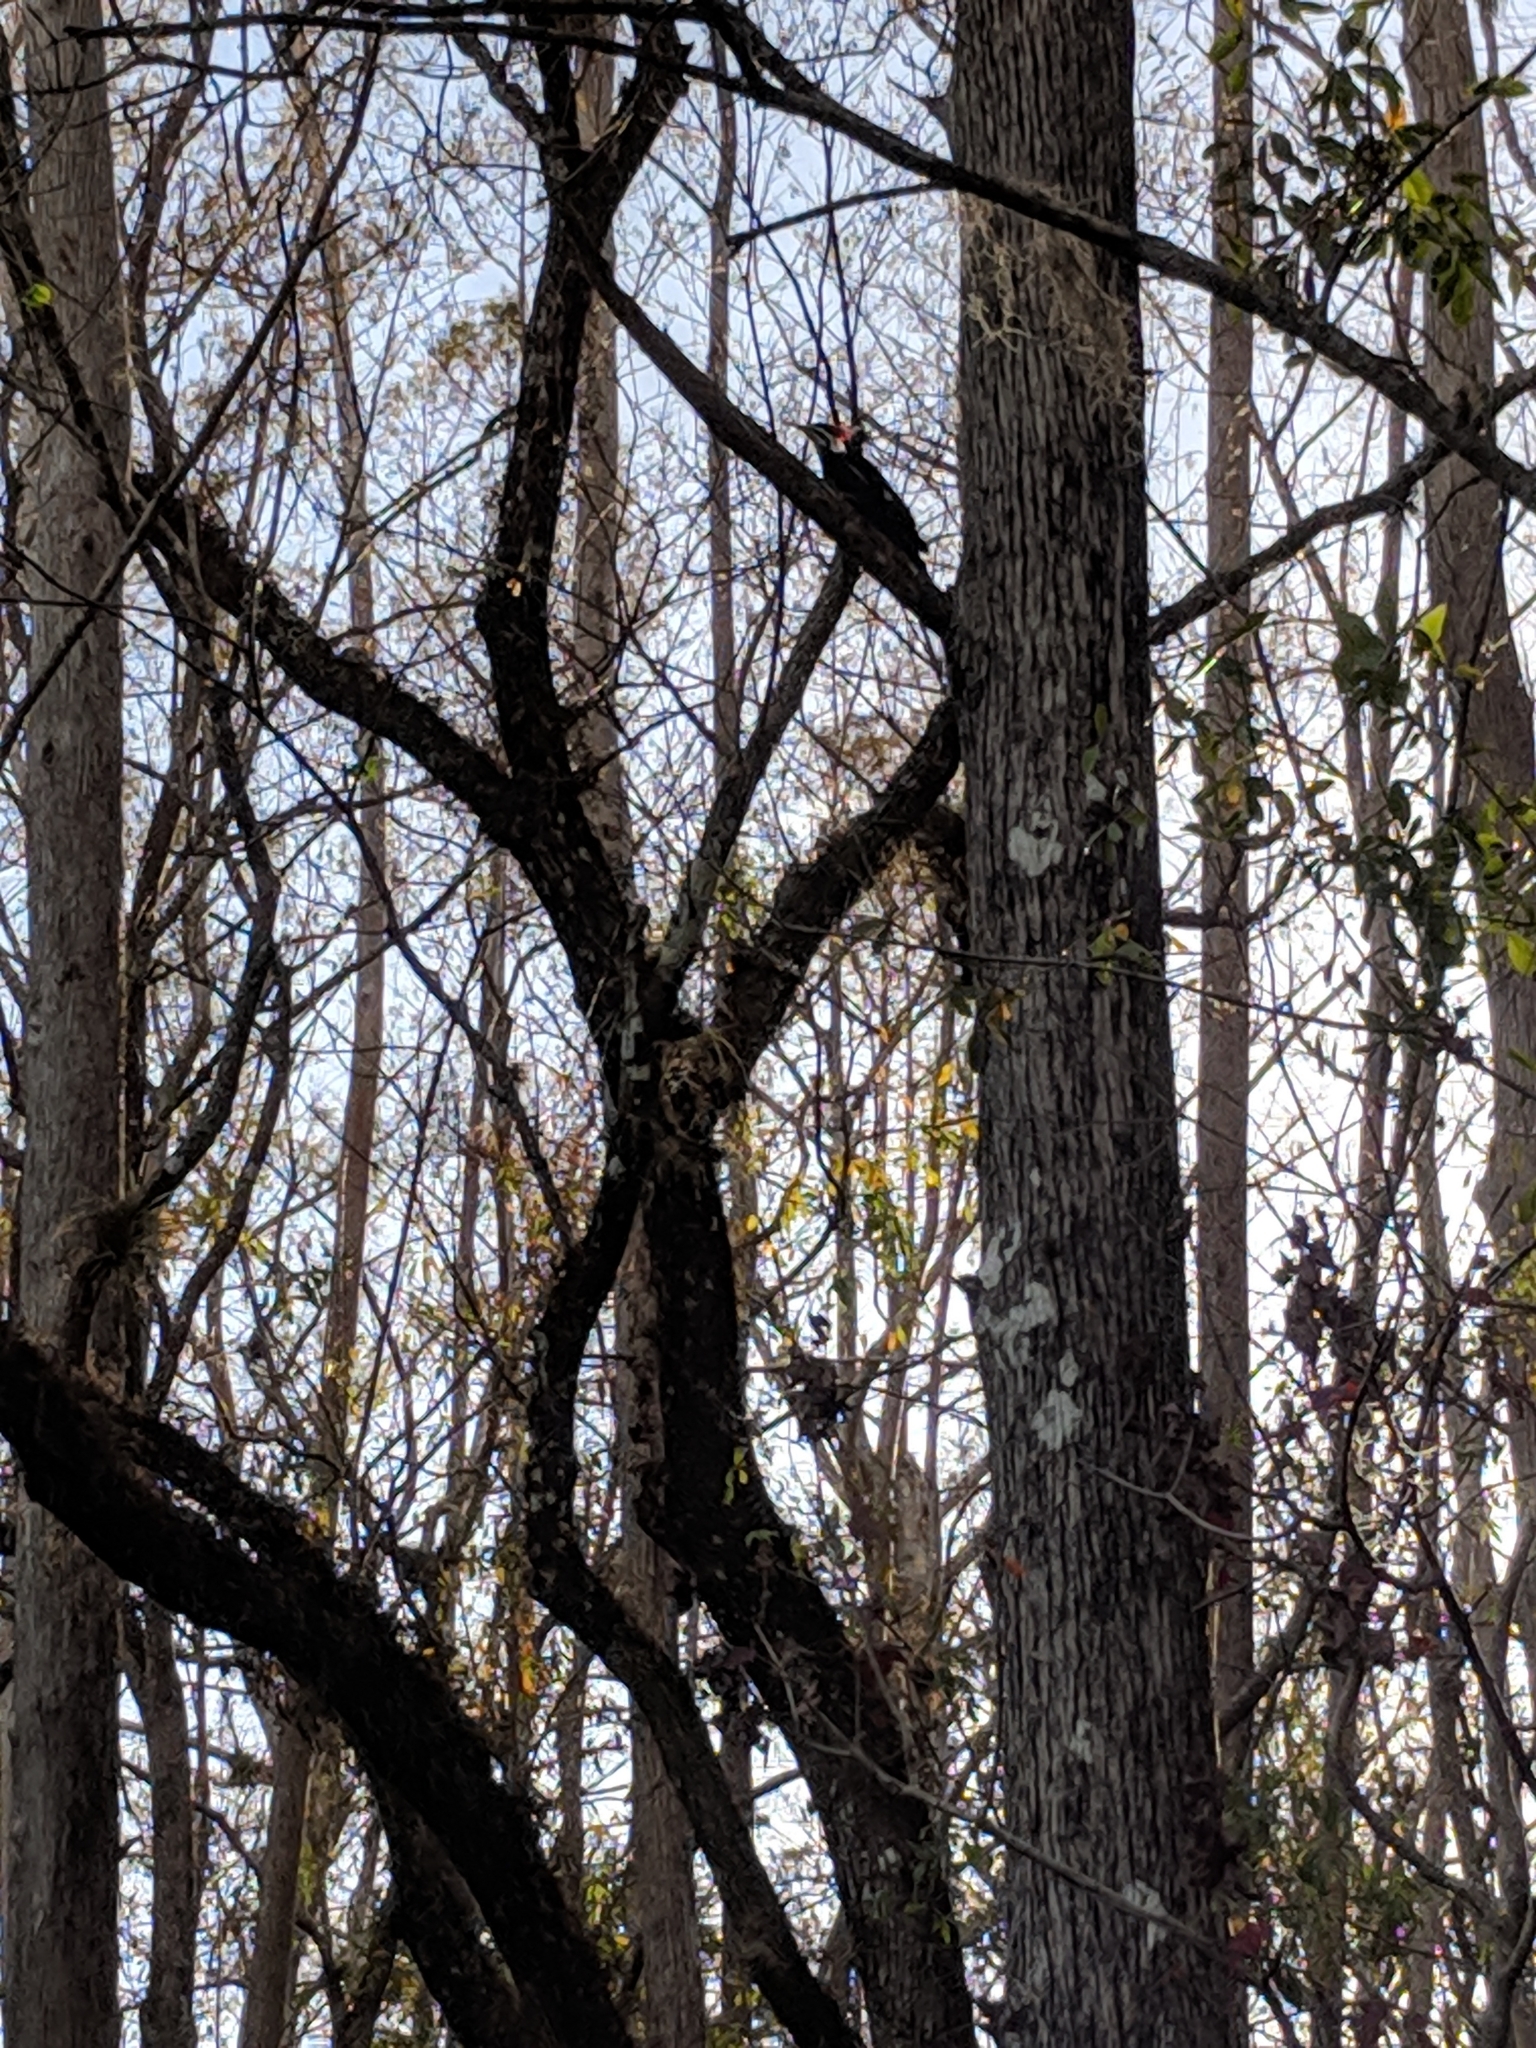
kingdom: Animalia
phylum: Chordata
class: Aves
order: Piciformes
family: Picidae
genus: Dryocopus
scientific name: Dryocopus pileatus
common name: Pileated woodpecker
